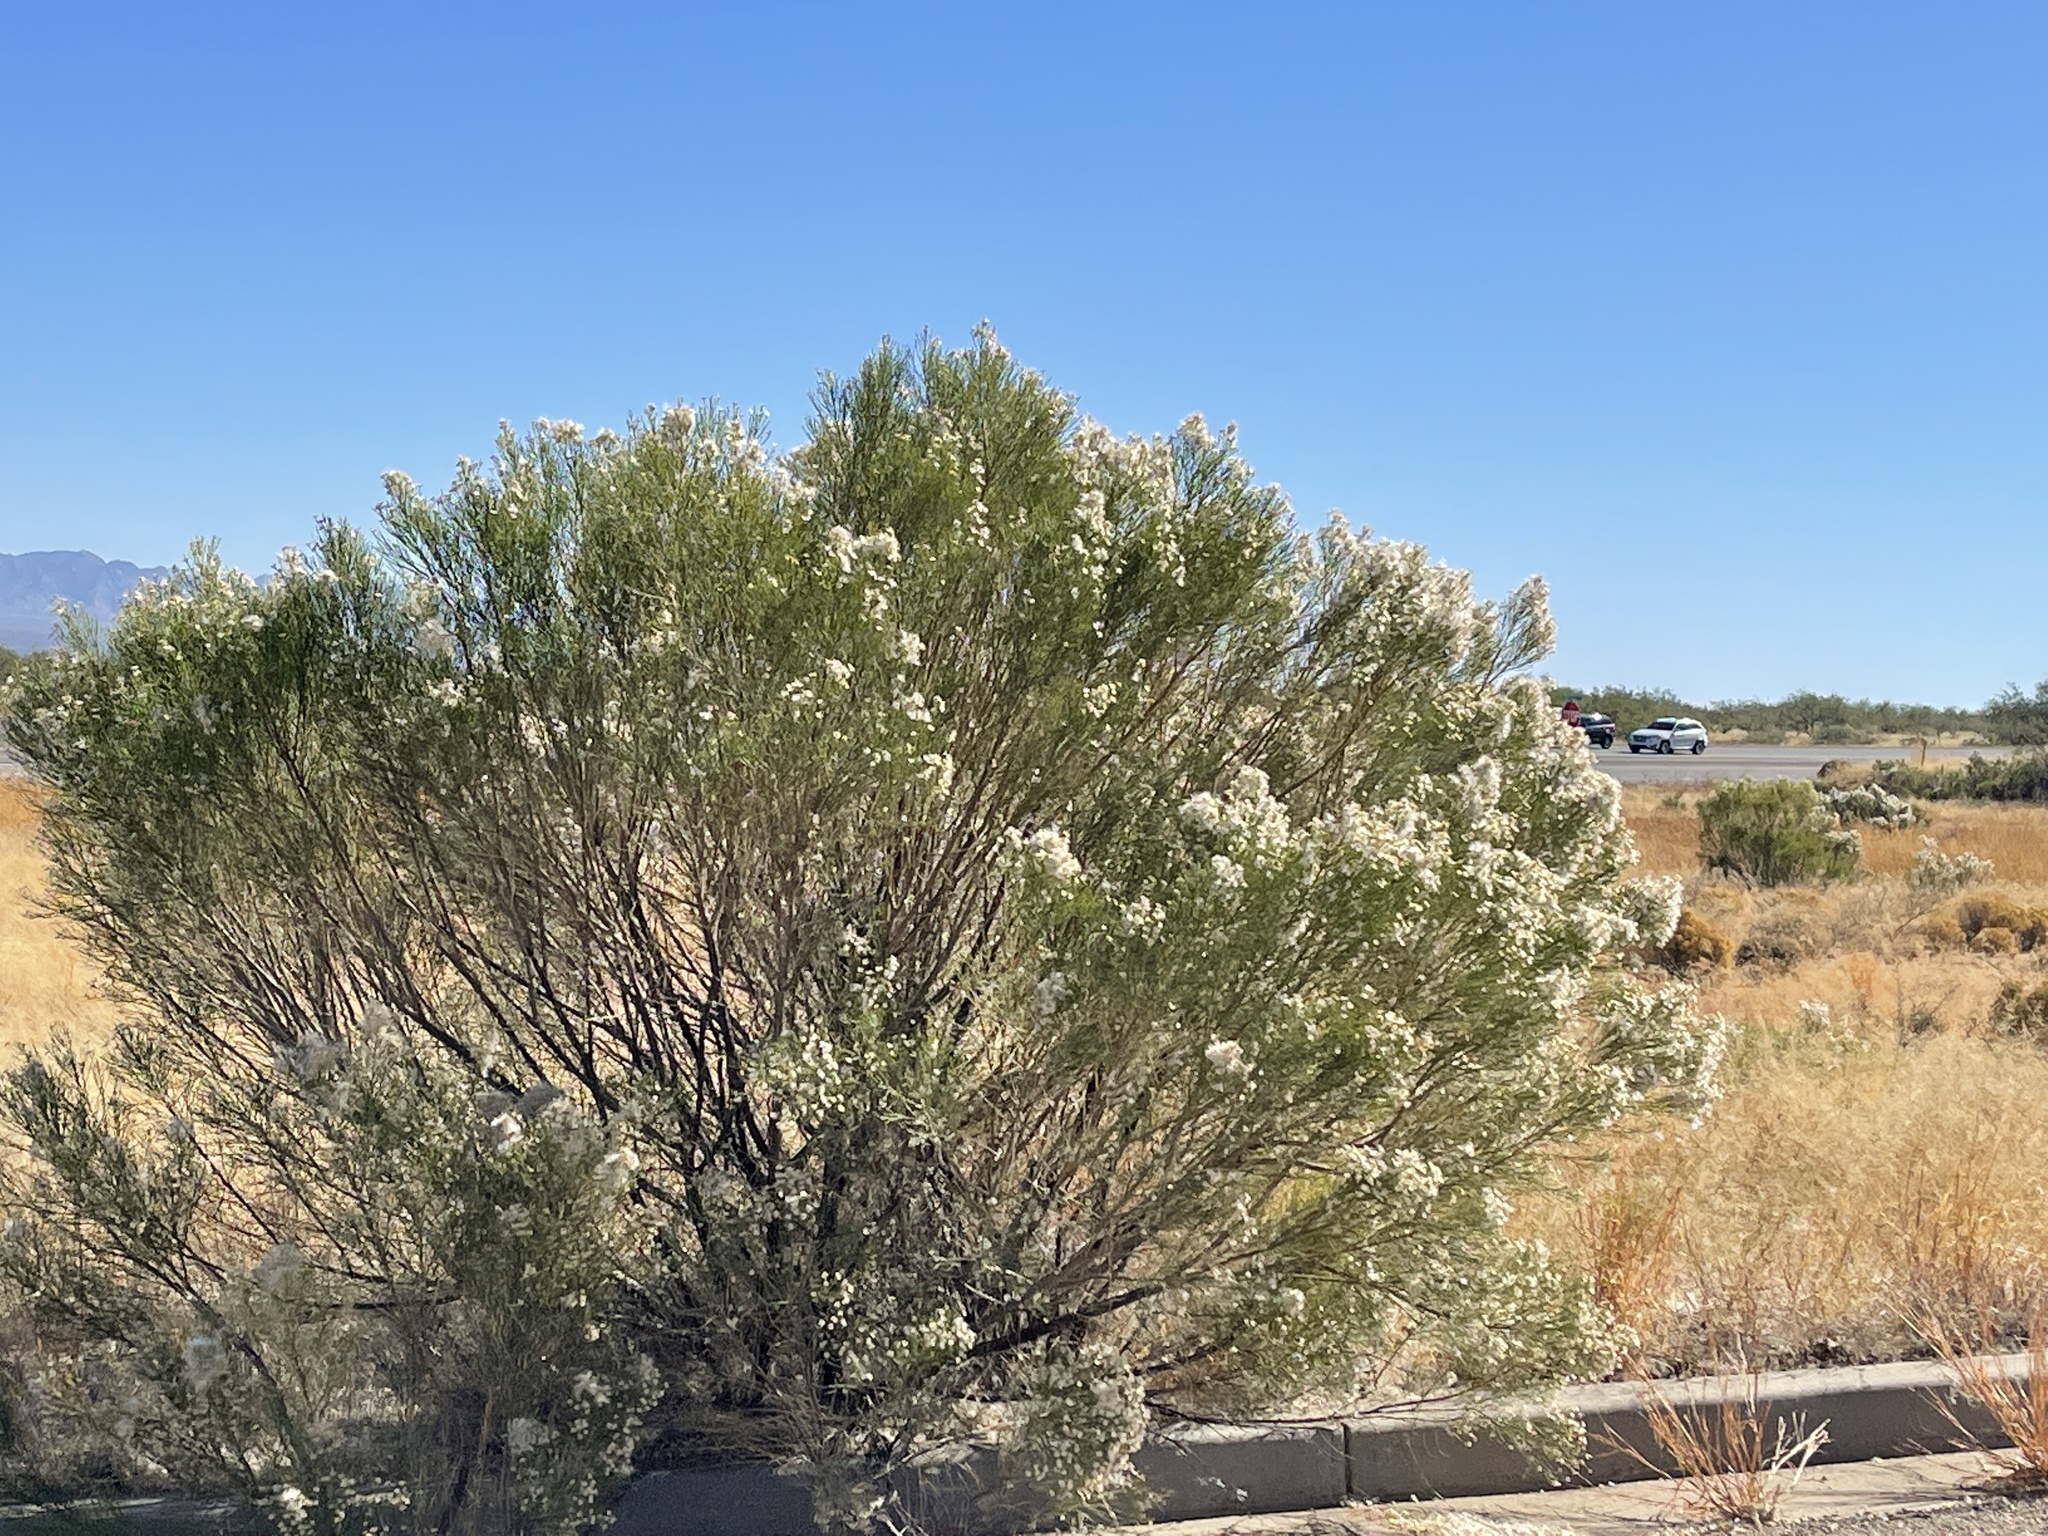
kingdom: Plantae
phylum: Tracheophyta
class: Magnoliopsida
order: Asterales
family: Asteraceae
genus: Baccharis
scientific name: Baccharis sarothroides
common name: Desert-broom
